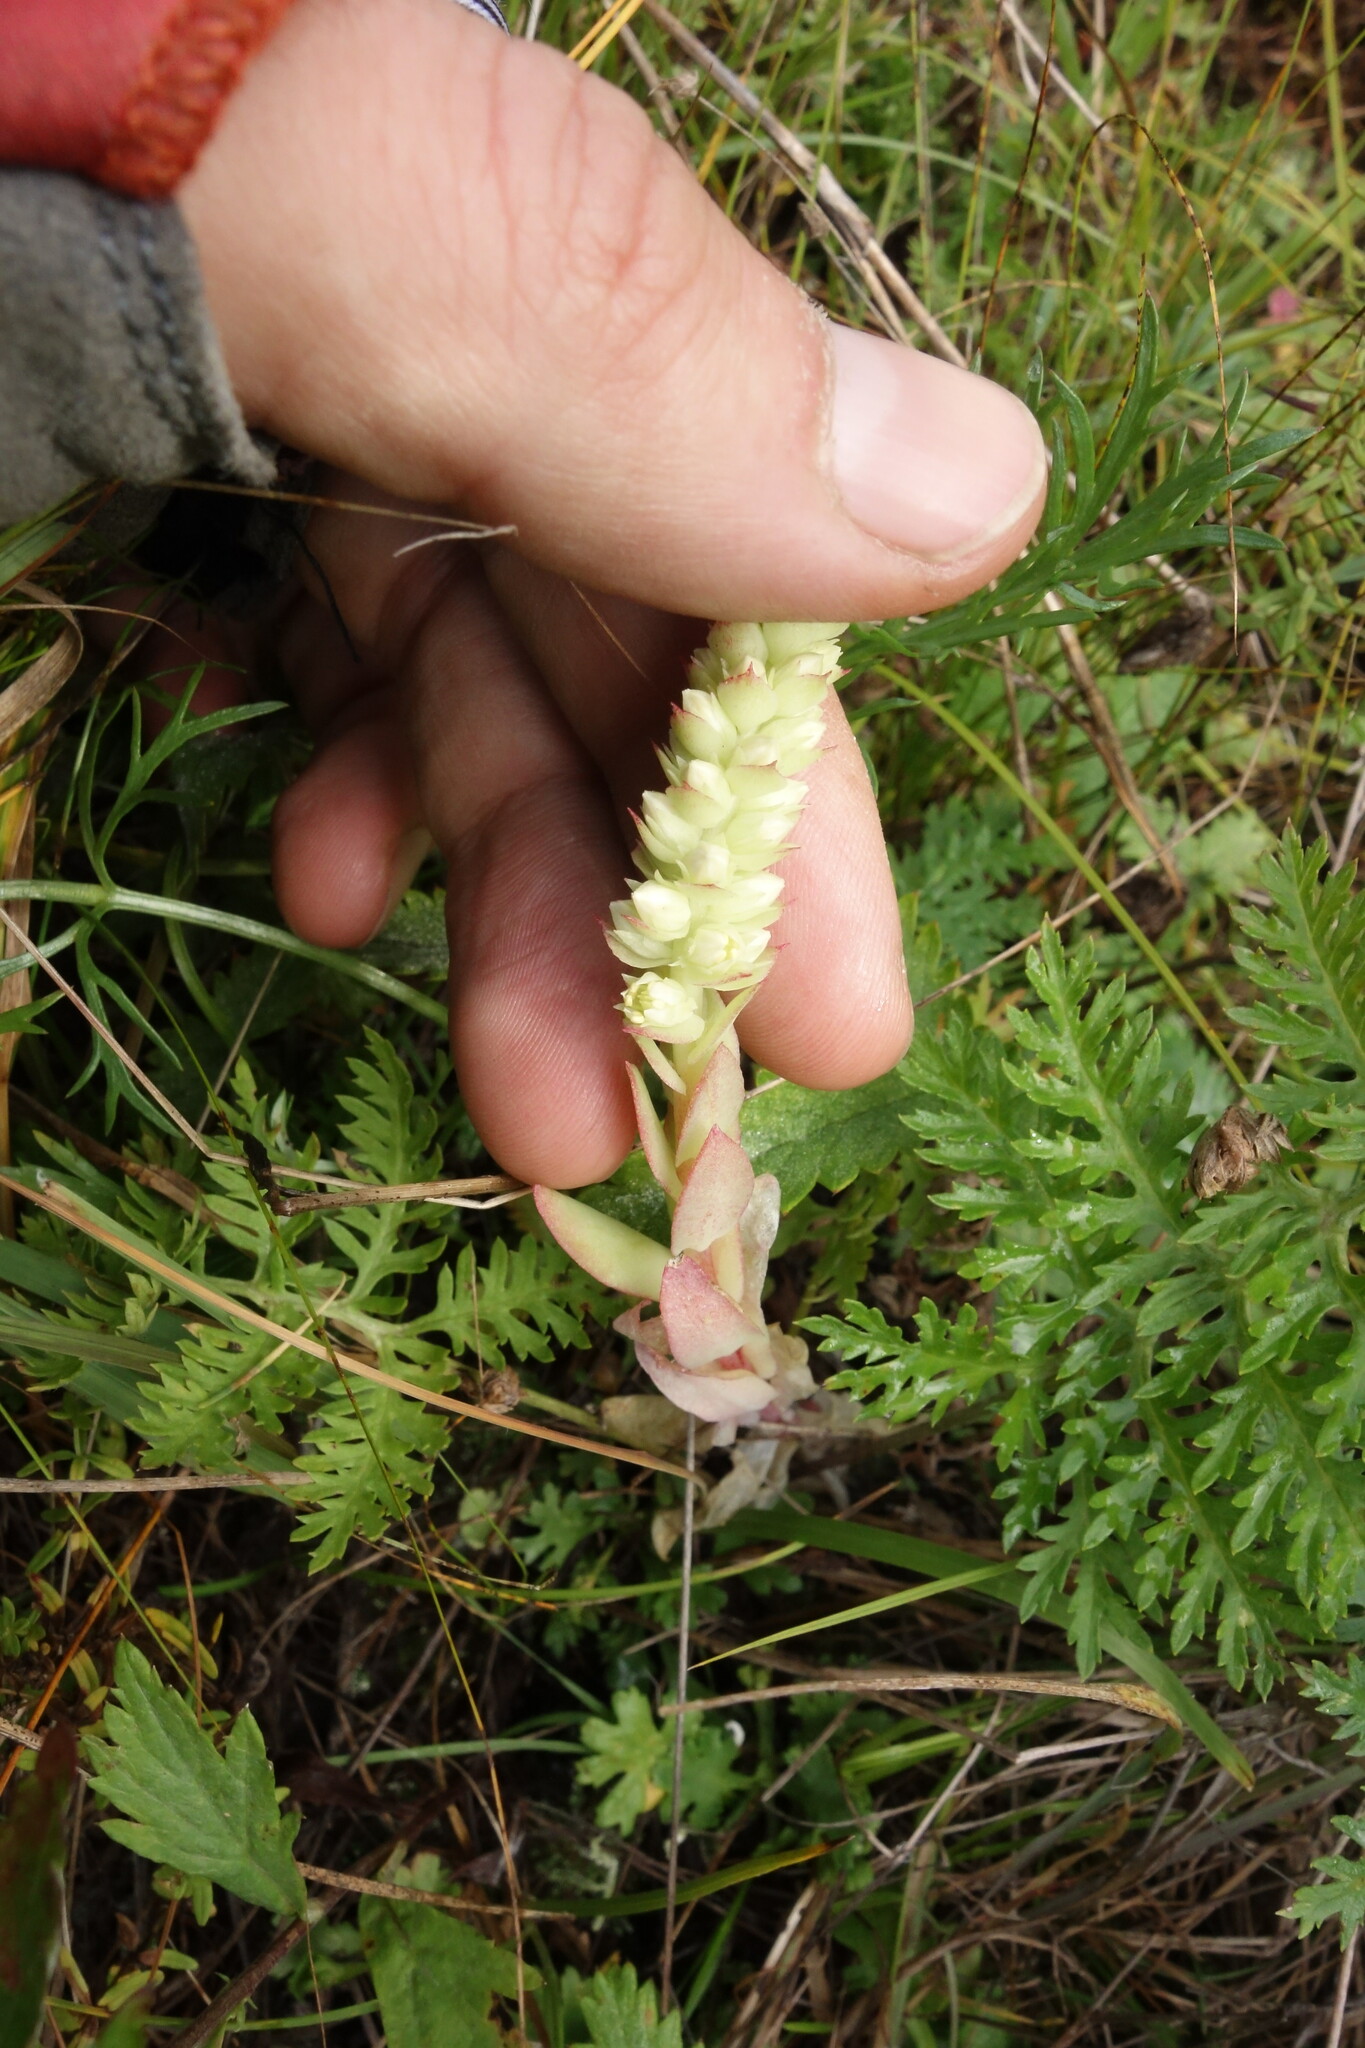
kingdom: Plantae
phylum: Tracheophyta
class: Magnoliopsida
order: Saxifragales
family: Crassulaceae
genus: Orostachys
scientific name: Orostachys malacophylla
